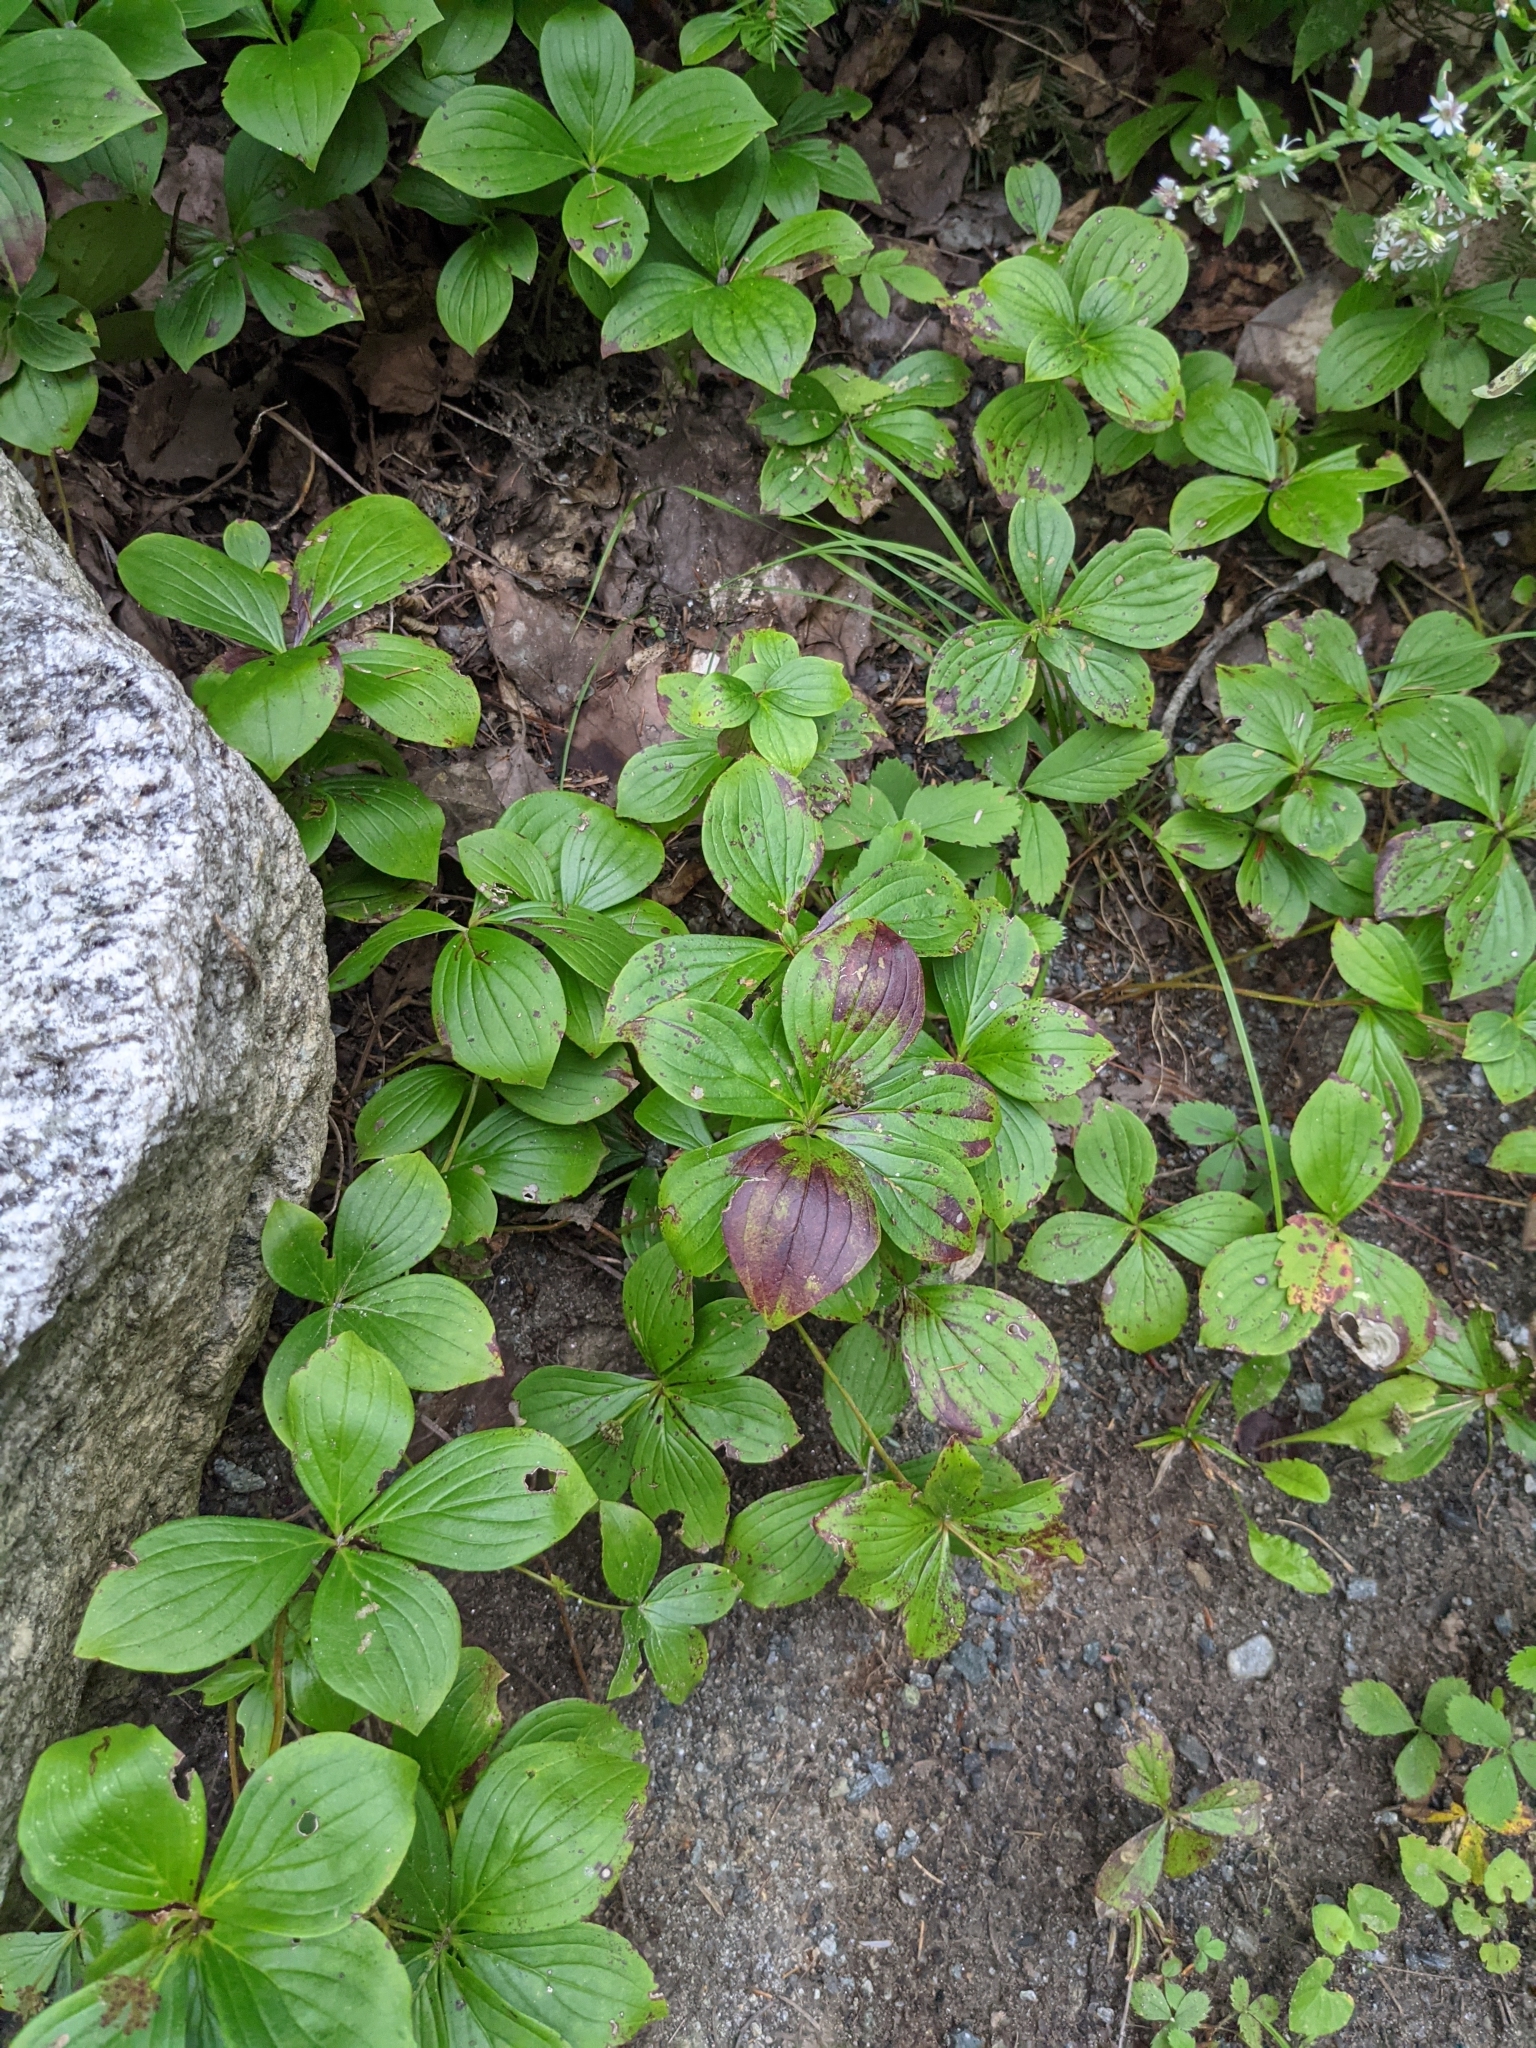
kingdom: Plantae
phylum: Tracheophyta
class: Magnoliopsida
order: Cornales
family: Cornaceae
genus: Cornus
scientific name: Cornus canadensis
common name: Creeping dogwood
